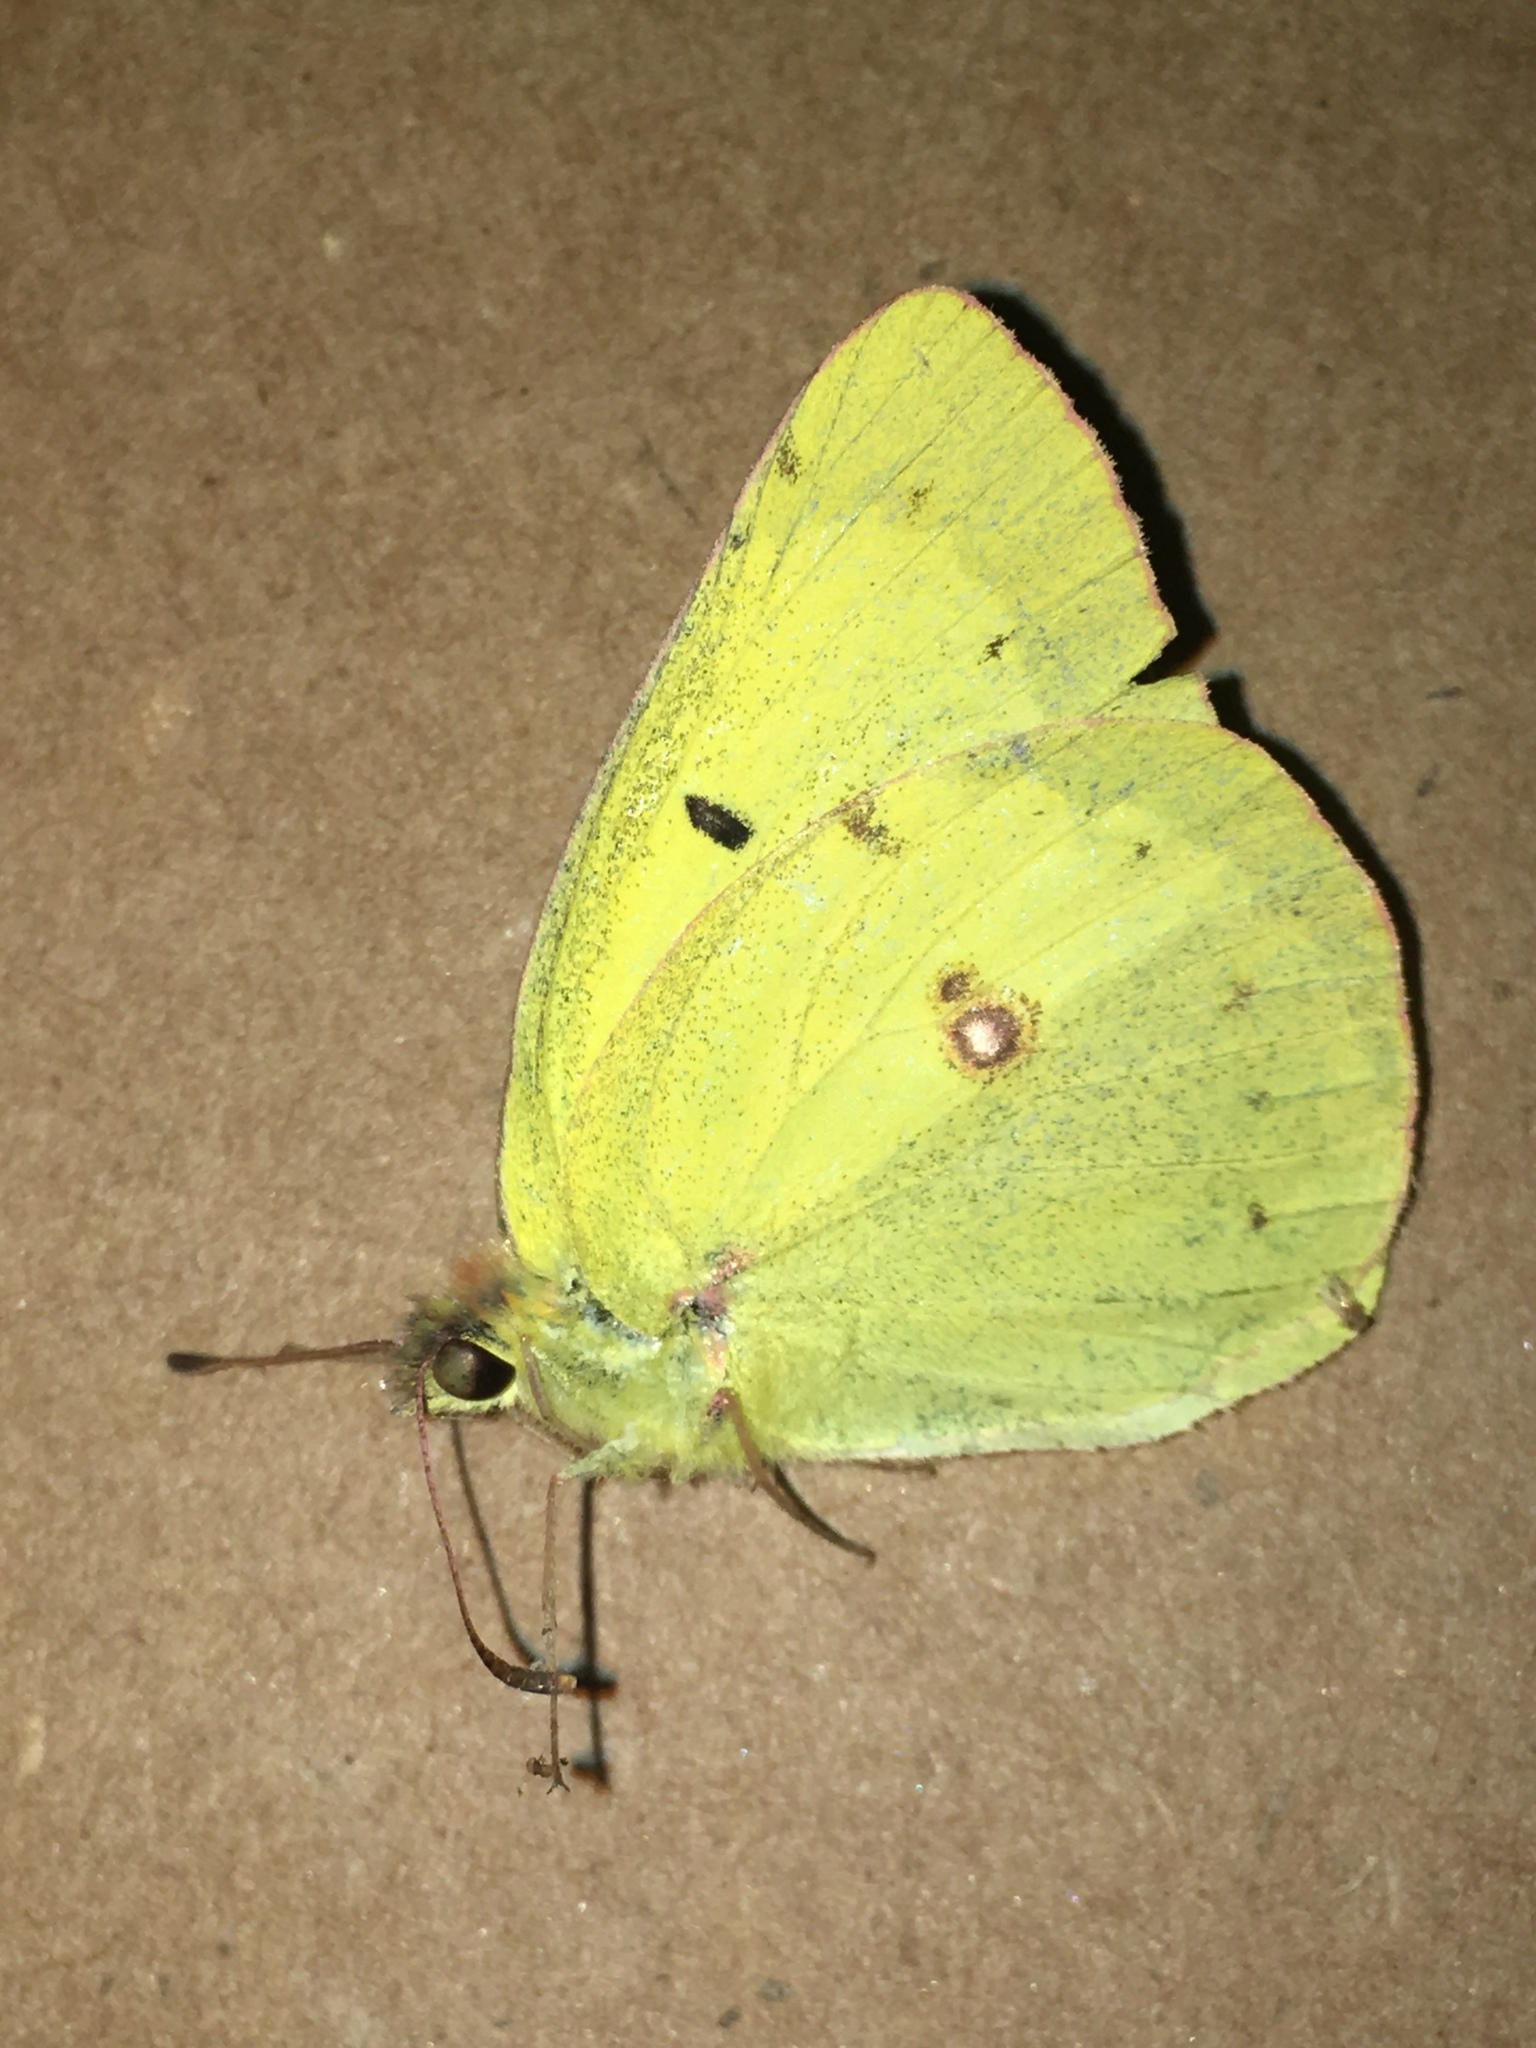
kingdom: Animalia
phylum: Arthropoda
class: Insecta
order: Lepidoptera
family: Pieridae
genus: Colias
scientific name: Colias philodice
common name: Clouded sulphur
